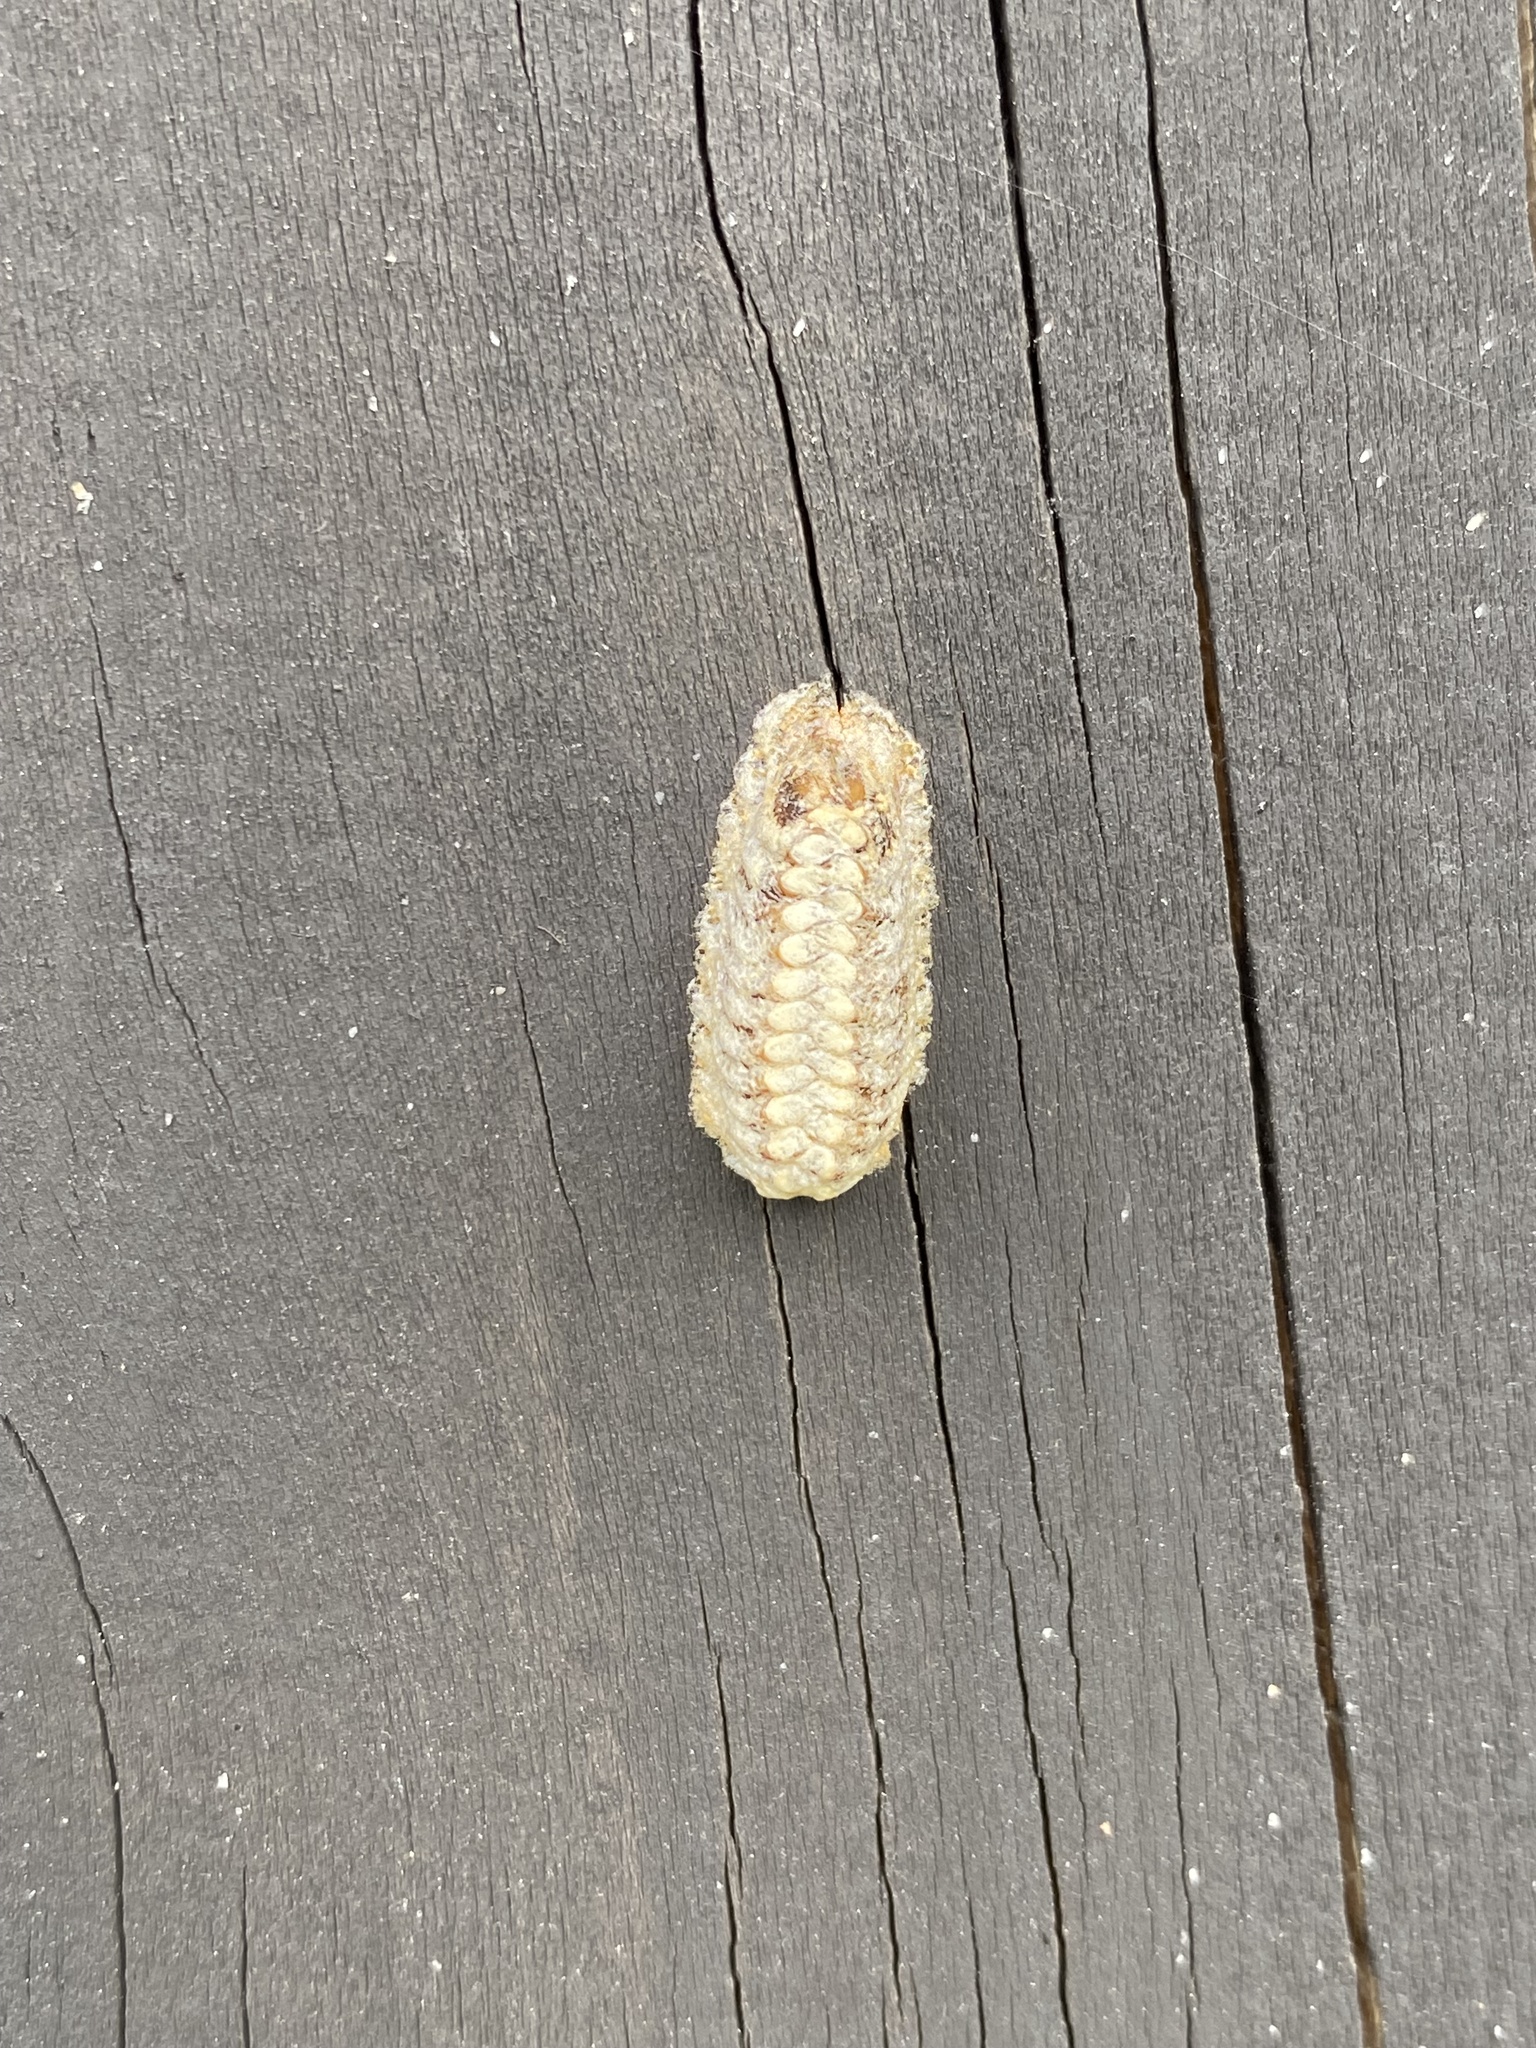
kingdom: Animalia
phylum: Arthropoda
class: Insecta
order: Mantodea
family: Mantidae
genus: Orthodera
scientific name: Orthodera novaezealandiae
